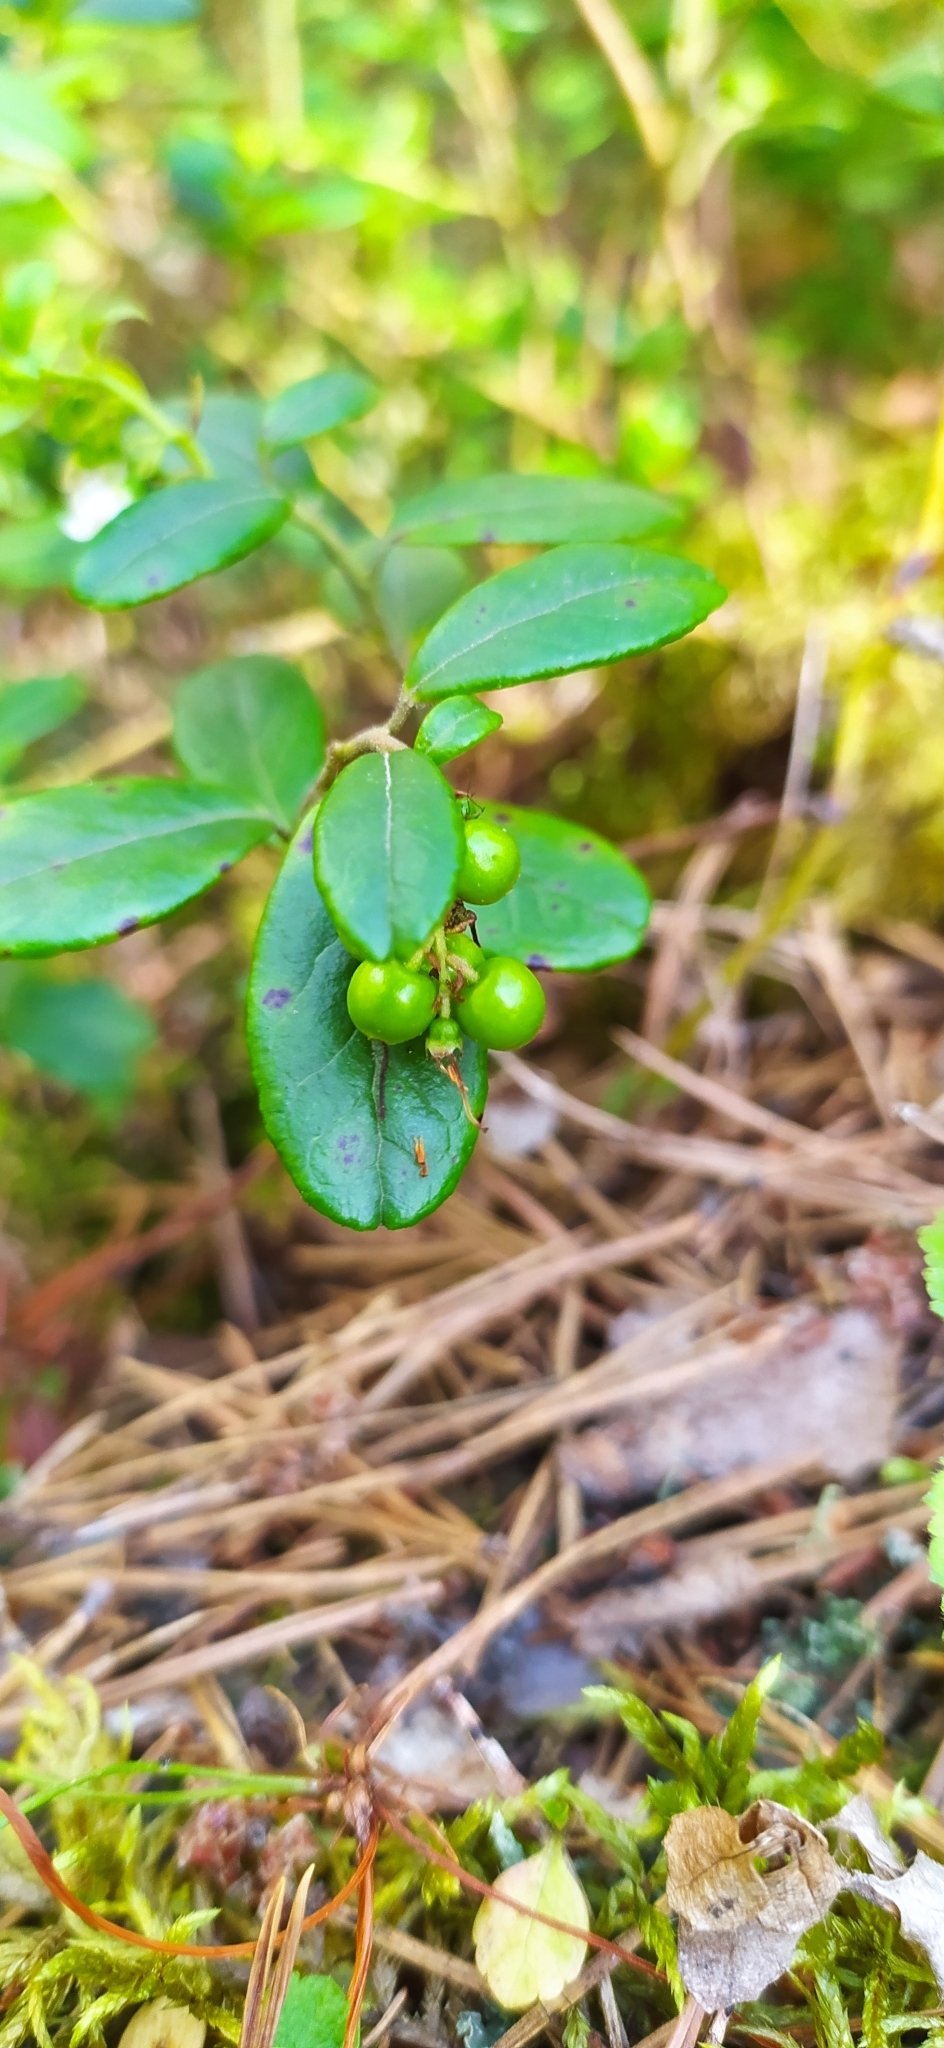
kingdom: Plantae
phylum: Tracheophyta
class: Magnoliopsida
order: Ericales
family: Ericaceae
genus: Vaccinium
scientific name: Vaccinium vitis-idaea
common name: Cowberry
